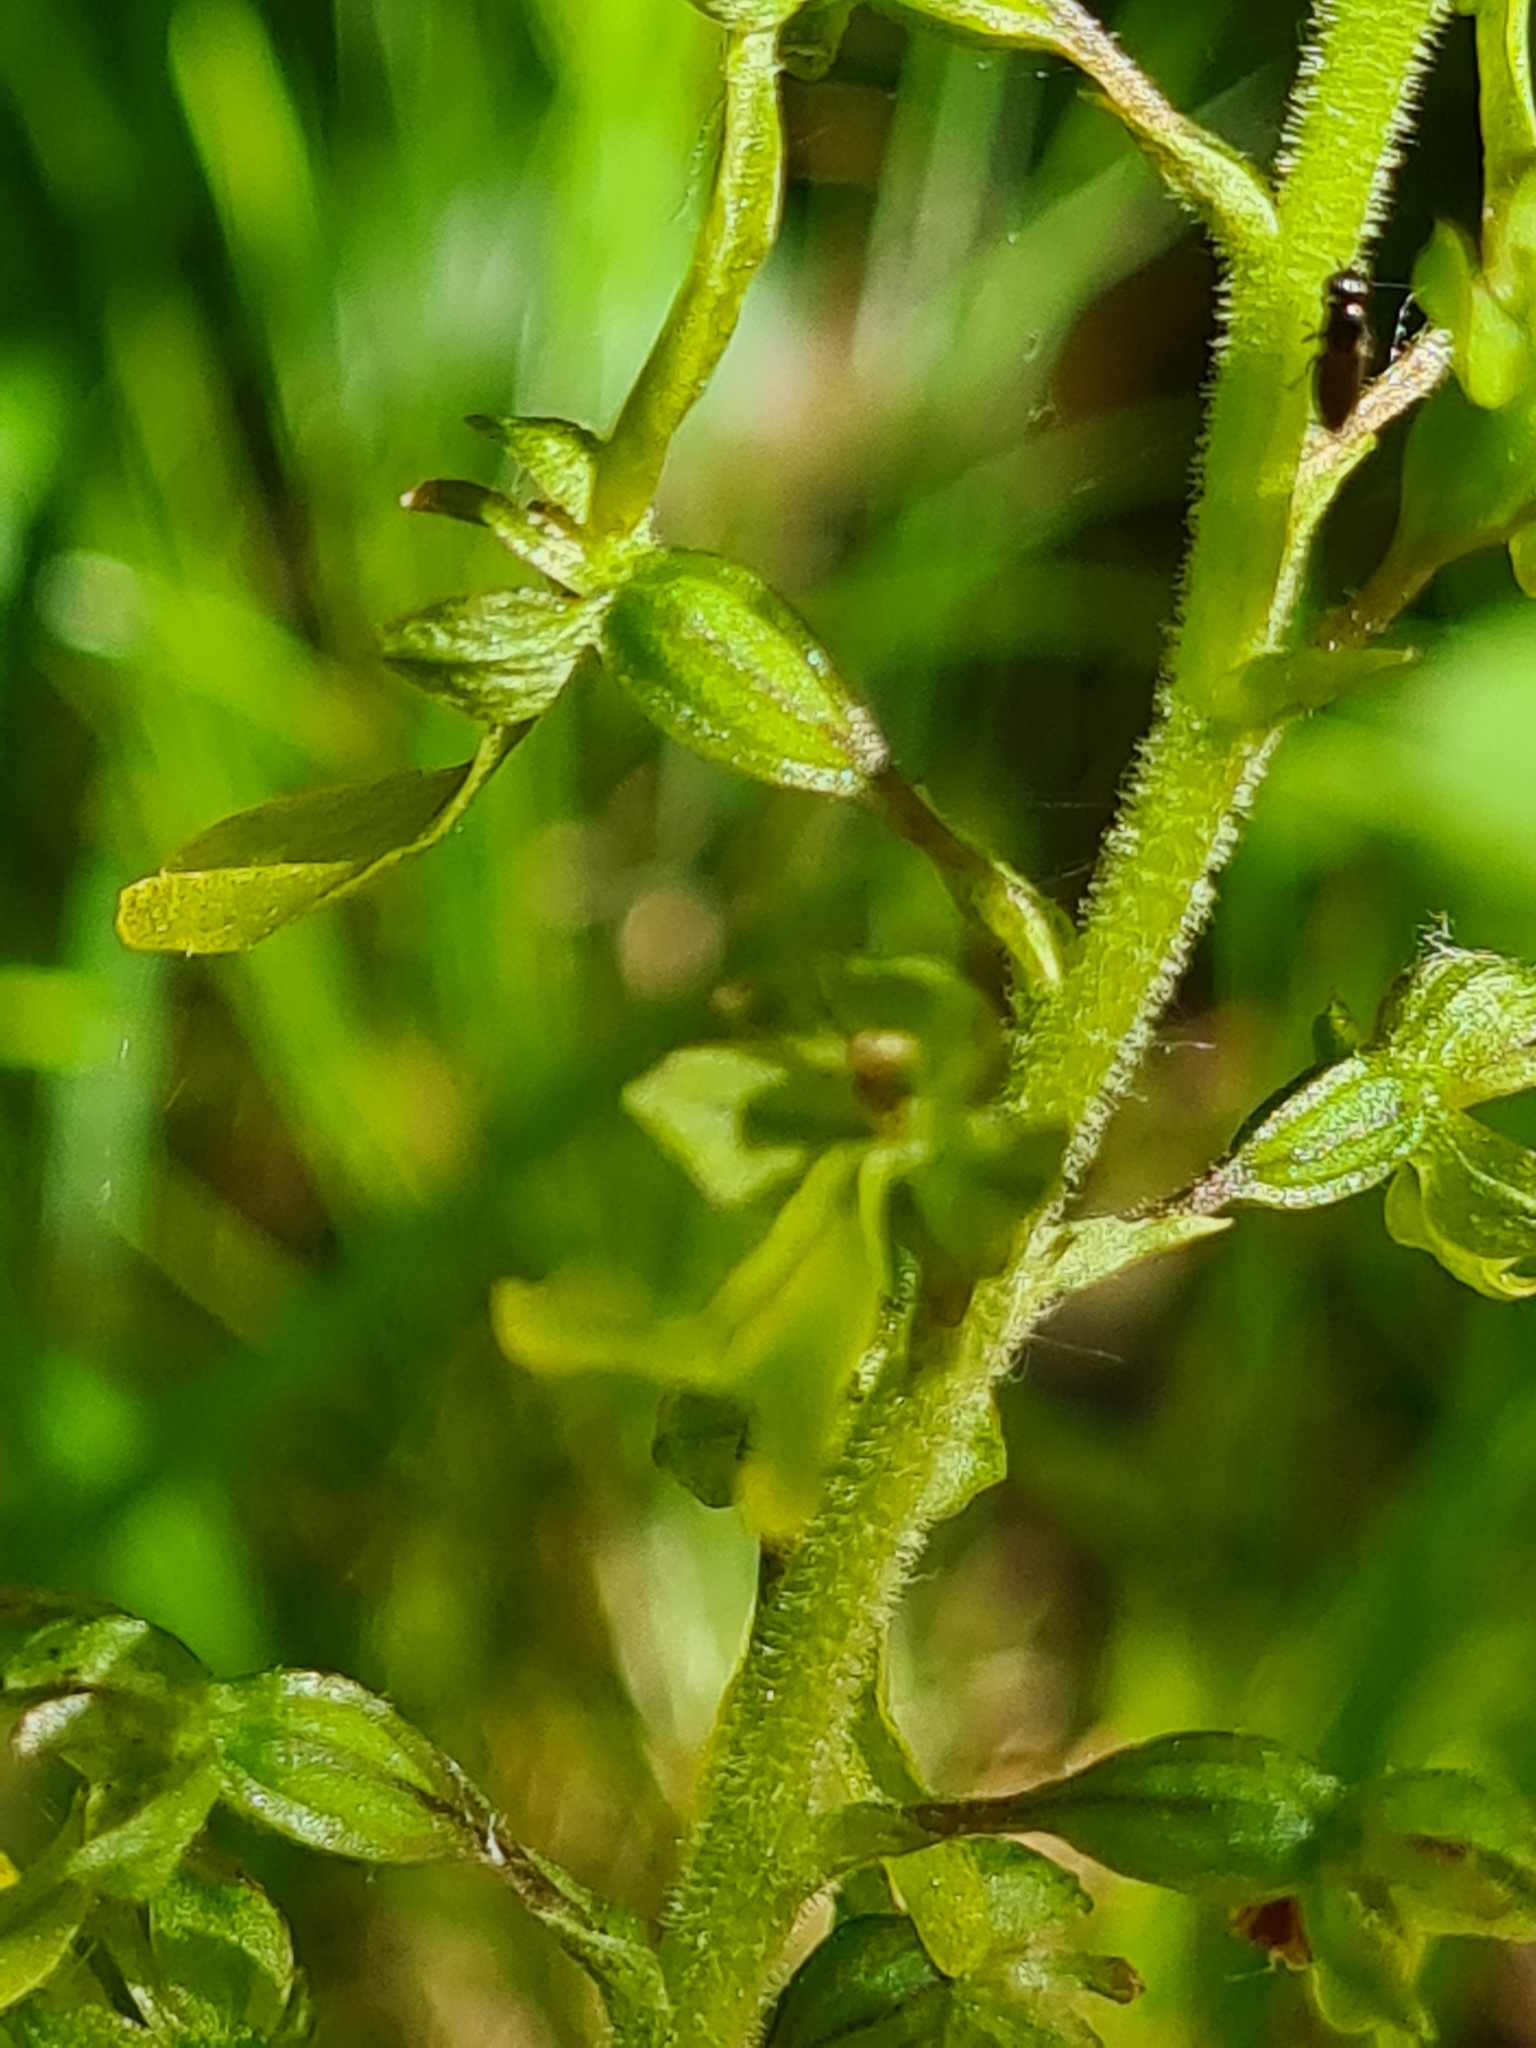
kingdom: Plantae
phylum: Tracheophyta
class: Liliopsida
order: Asparagales
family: Orchidaceae
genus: Neottia
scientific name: Neottia ovata
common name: Common twayblade
